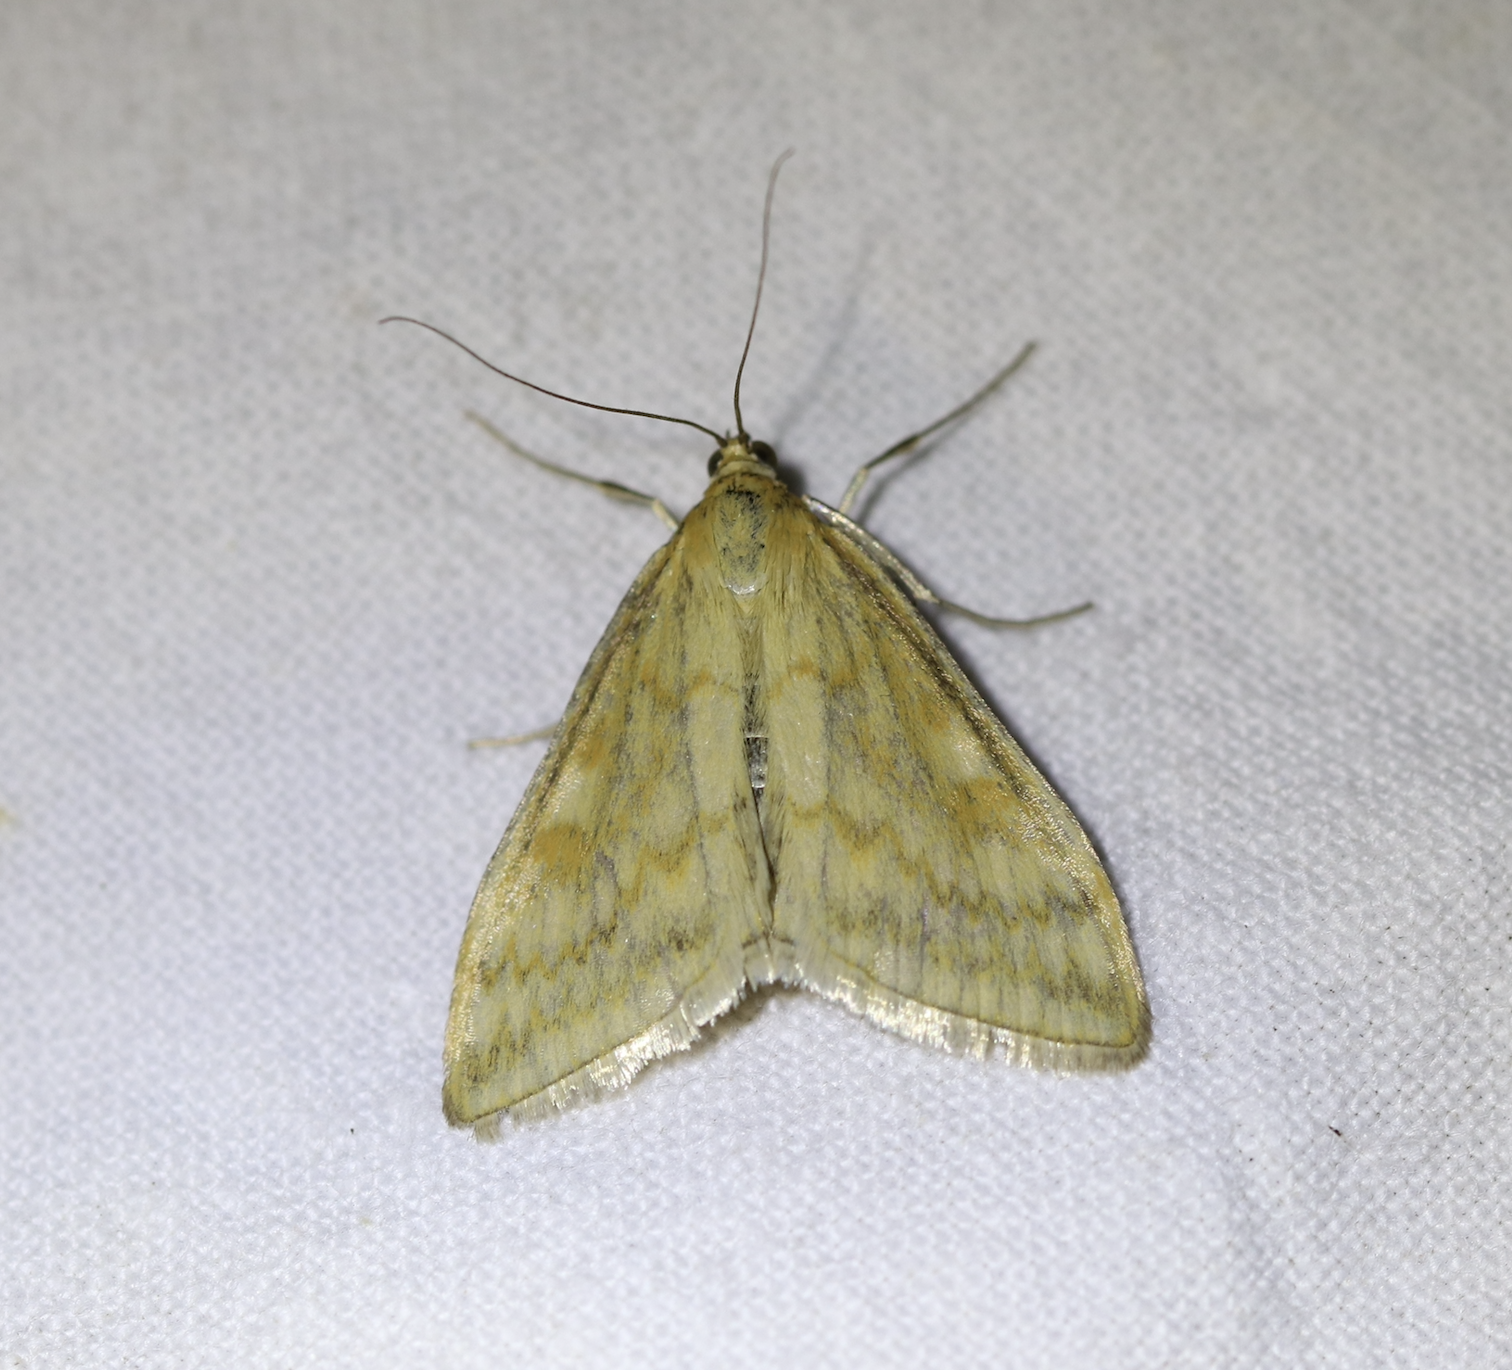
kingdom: Animalia
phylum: Arthropoda
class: Insecta
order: Lepidoptera
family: Crambidae
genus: Sitochroa
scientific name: Sitochroa verticalis
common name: Lesser pearl
